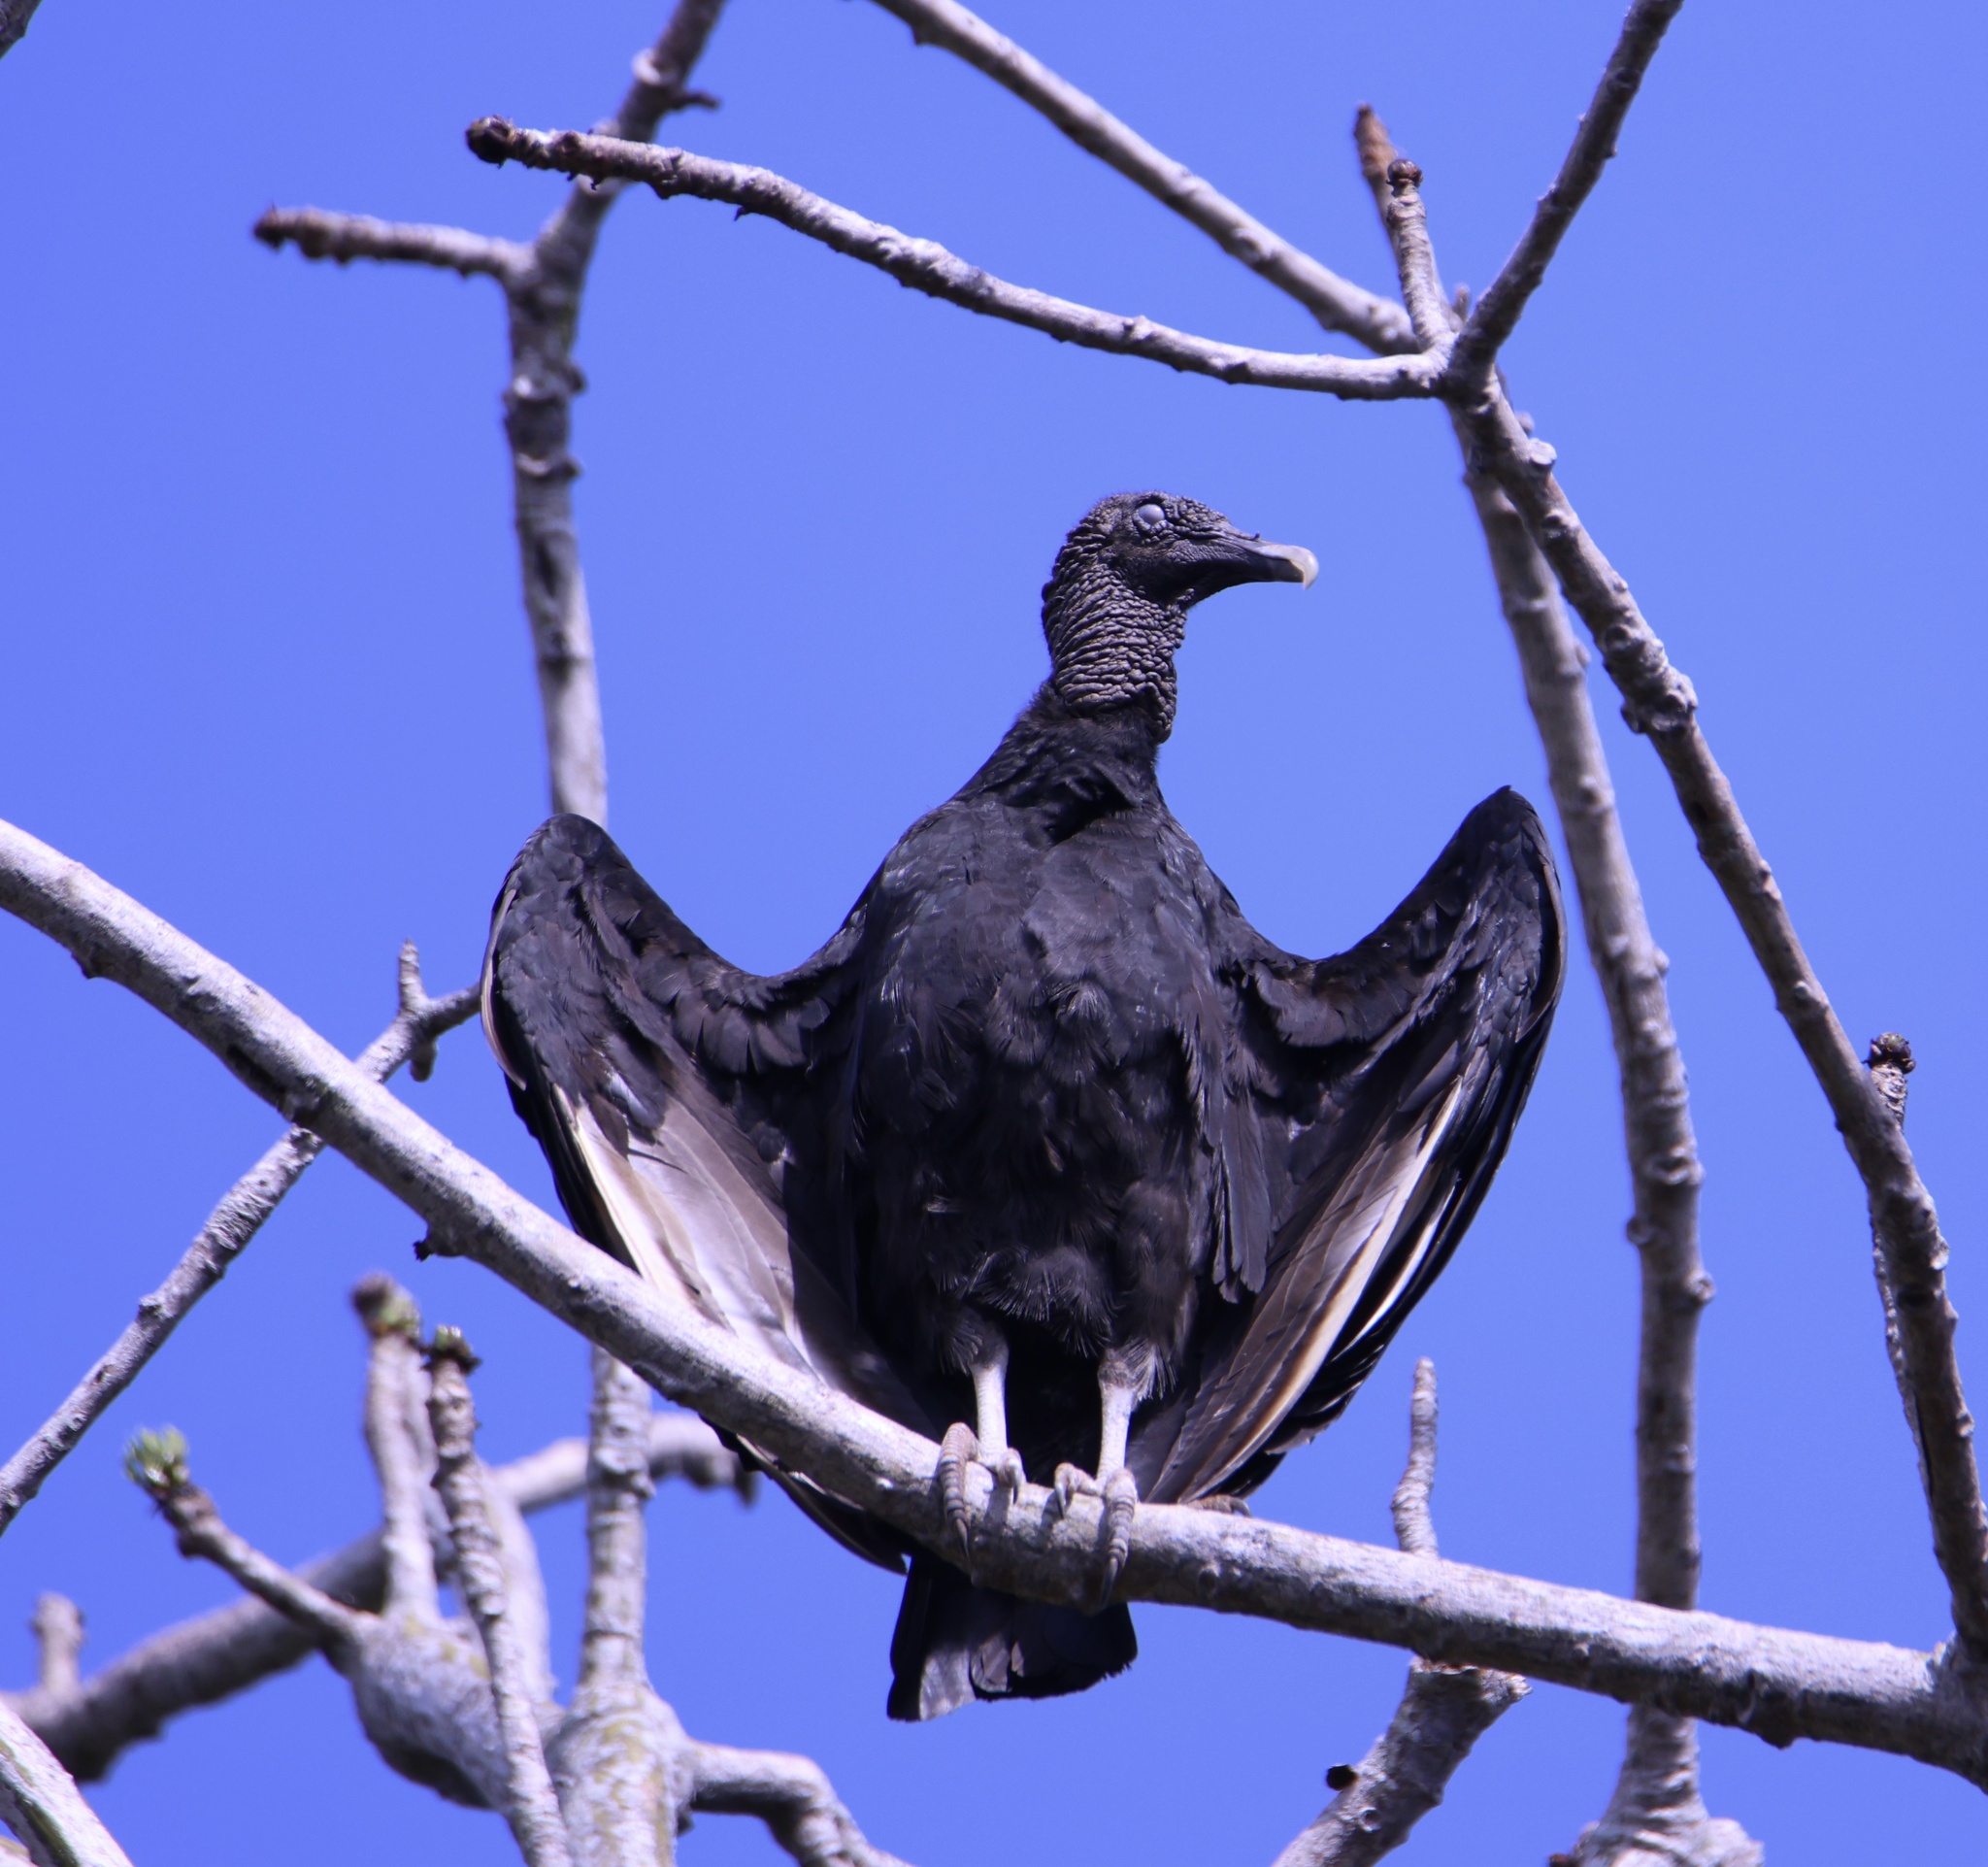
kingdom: Animalia
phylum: Chordata
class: Aves
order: Accipitriformes
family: Cathartidae
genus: Coragyps
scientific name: Coragyps atratus
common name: Black vulture
